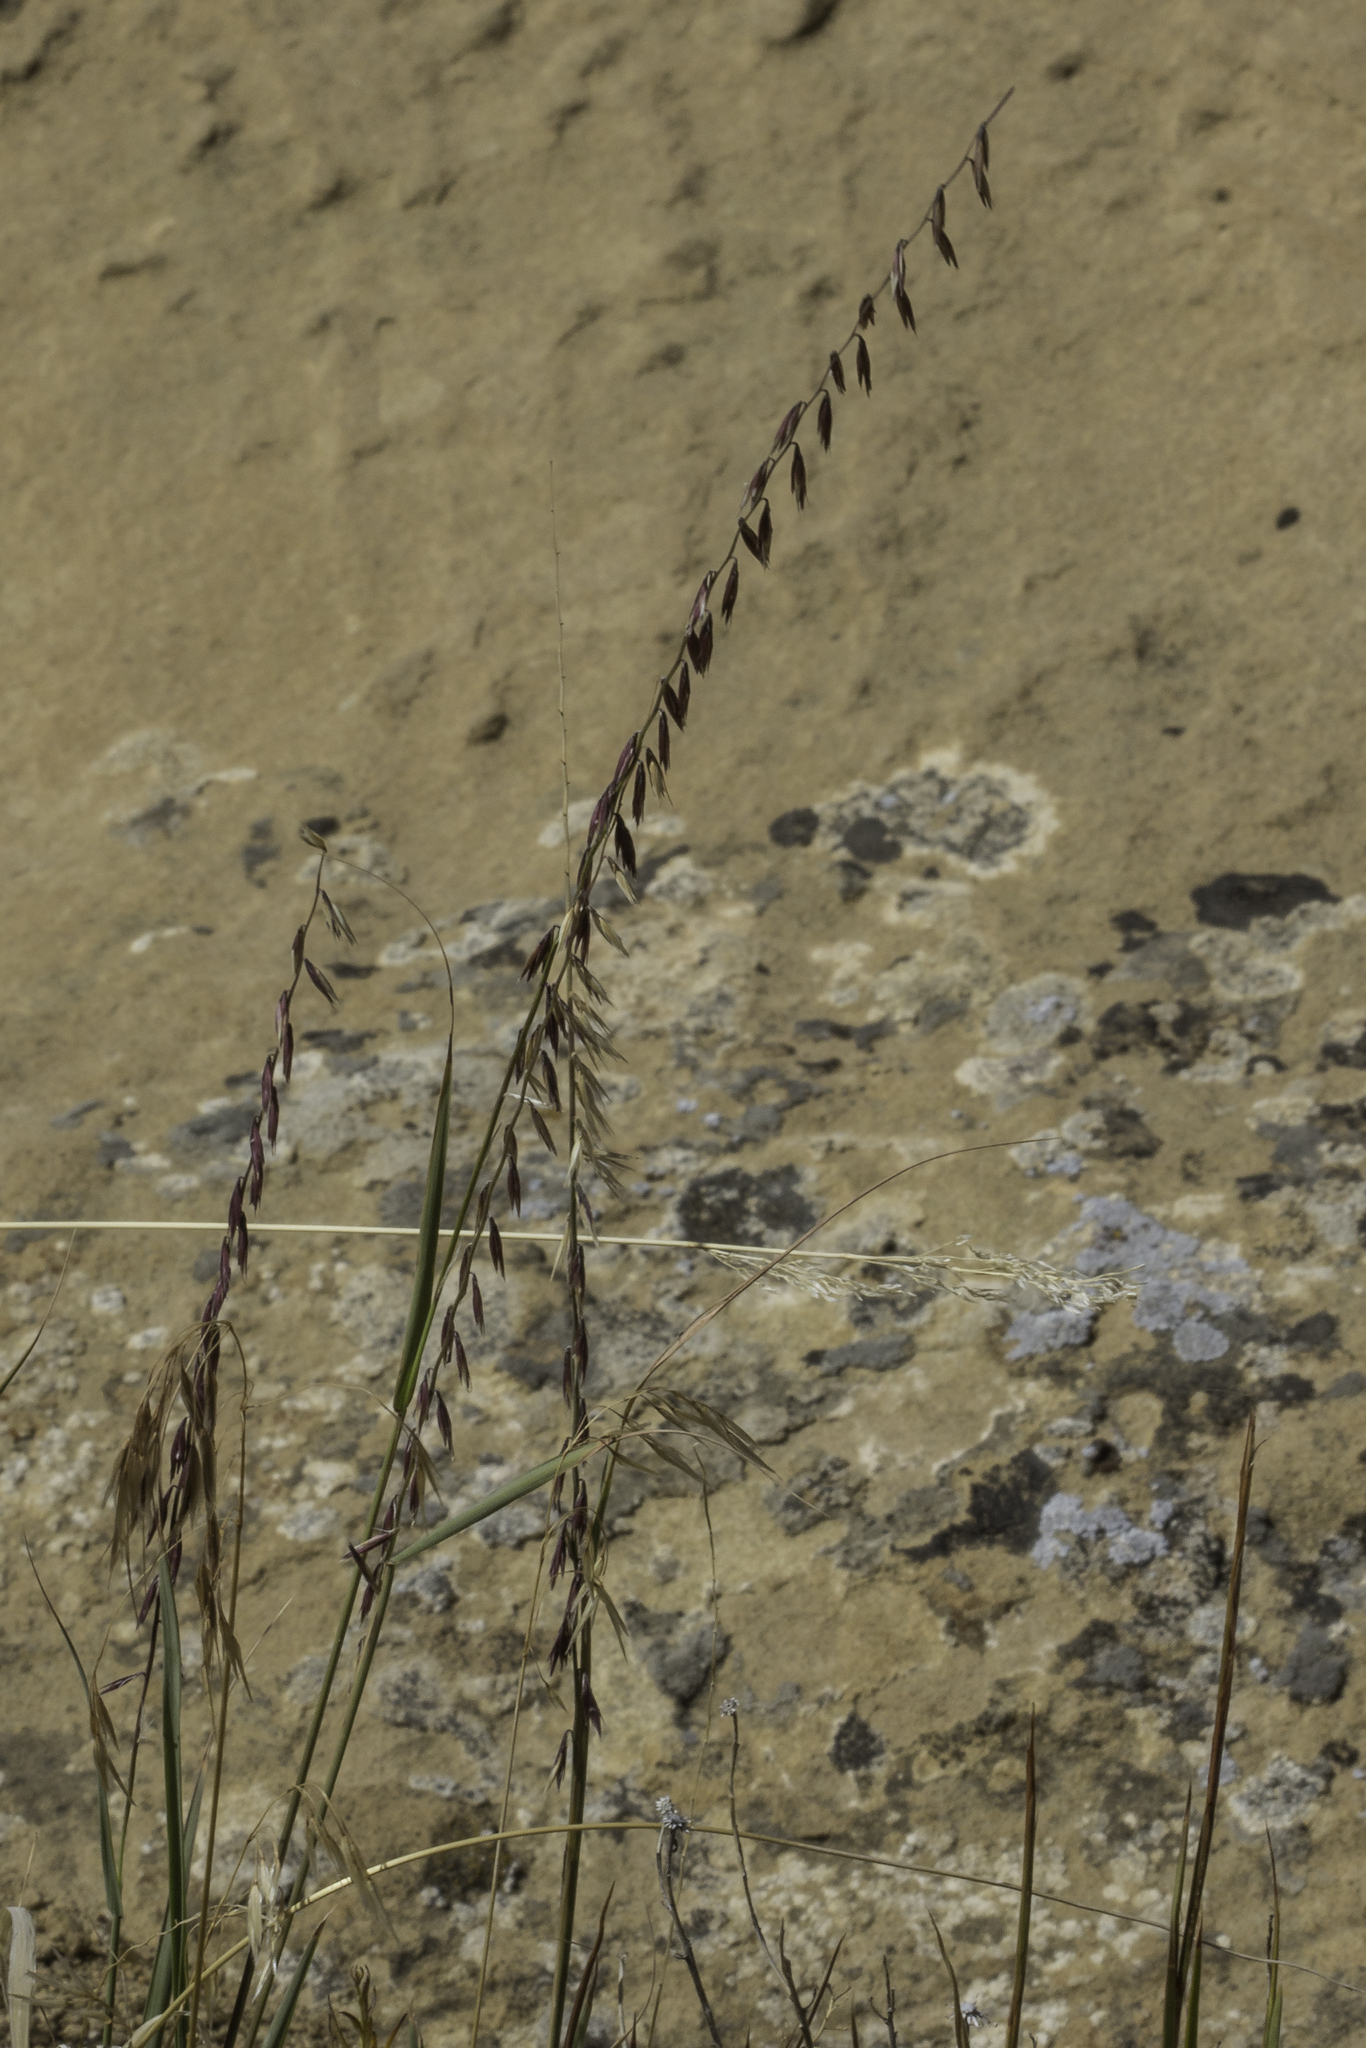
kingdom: Plantae
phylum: Tracheophyta
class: Liliopsida
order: Poales
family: Poaceae
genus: Bouteloua
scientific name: Bouteloua curtipendula
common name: Side-oats grama
